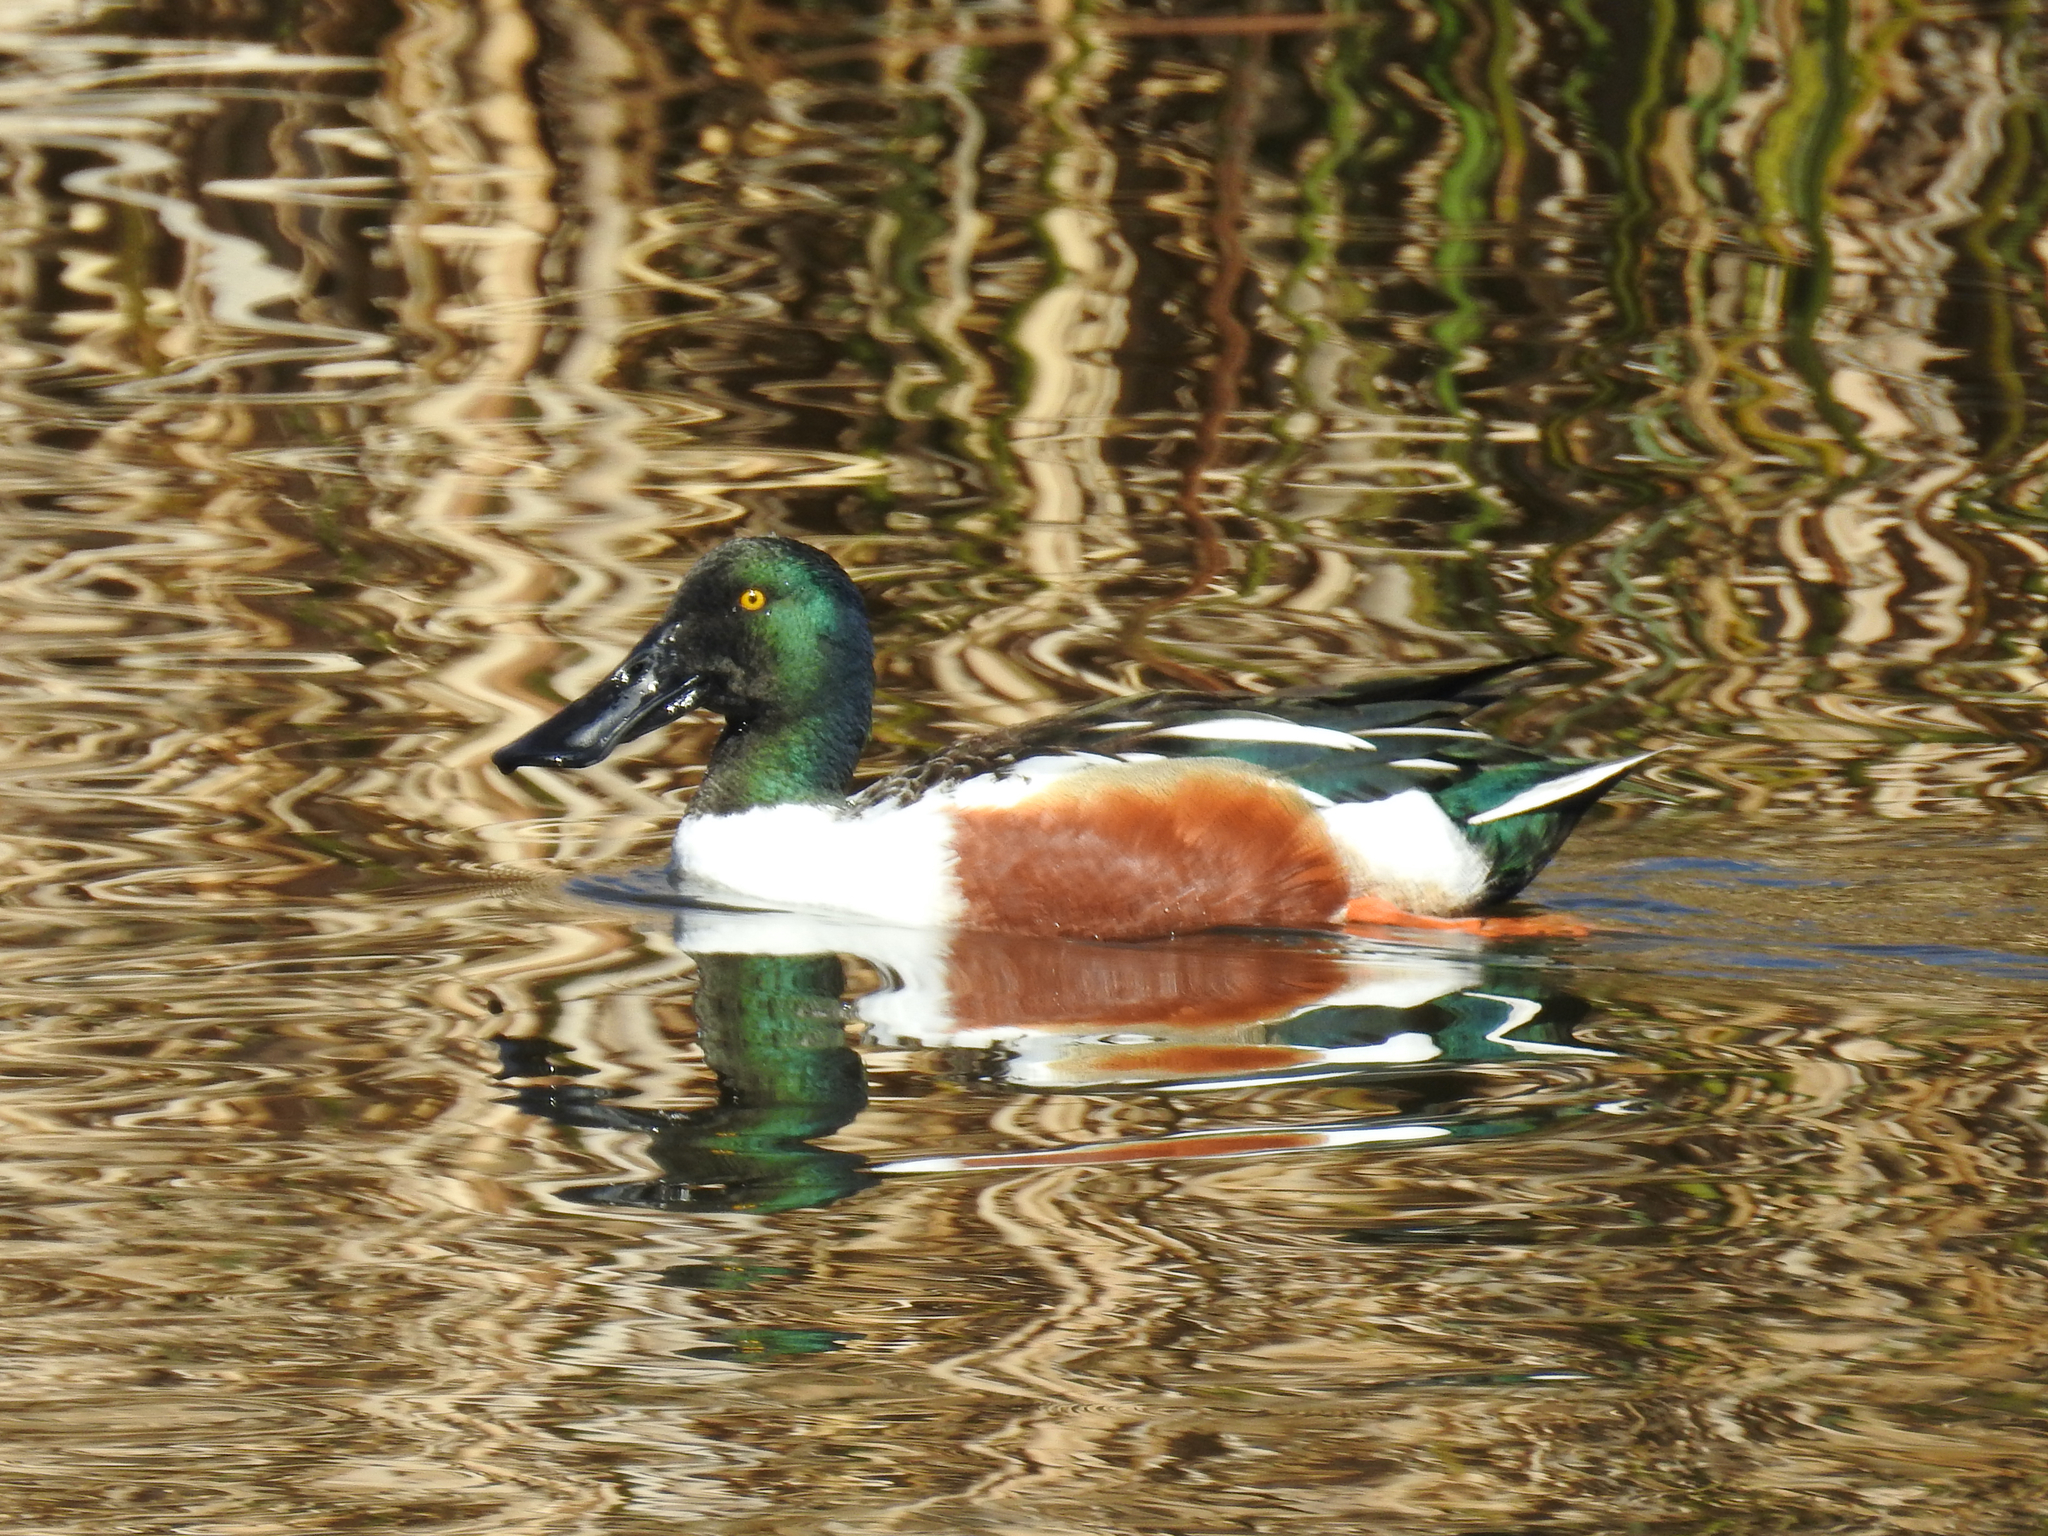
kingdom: Animalia
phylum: Chordata
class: Aves
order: Anseriformes
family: Anatidae
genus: Spatula
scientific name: Spatula clypeata
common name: Northern shoveler
